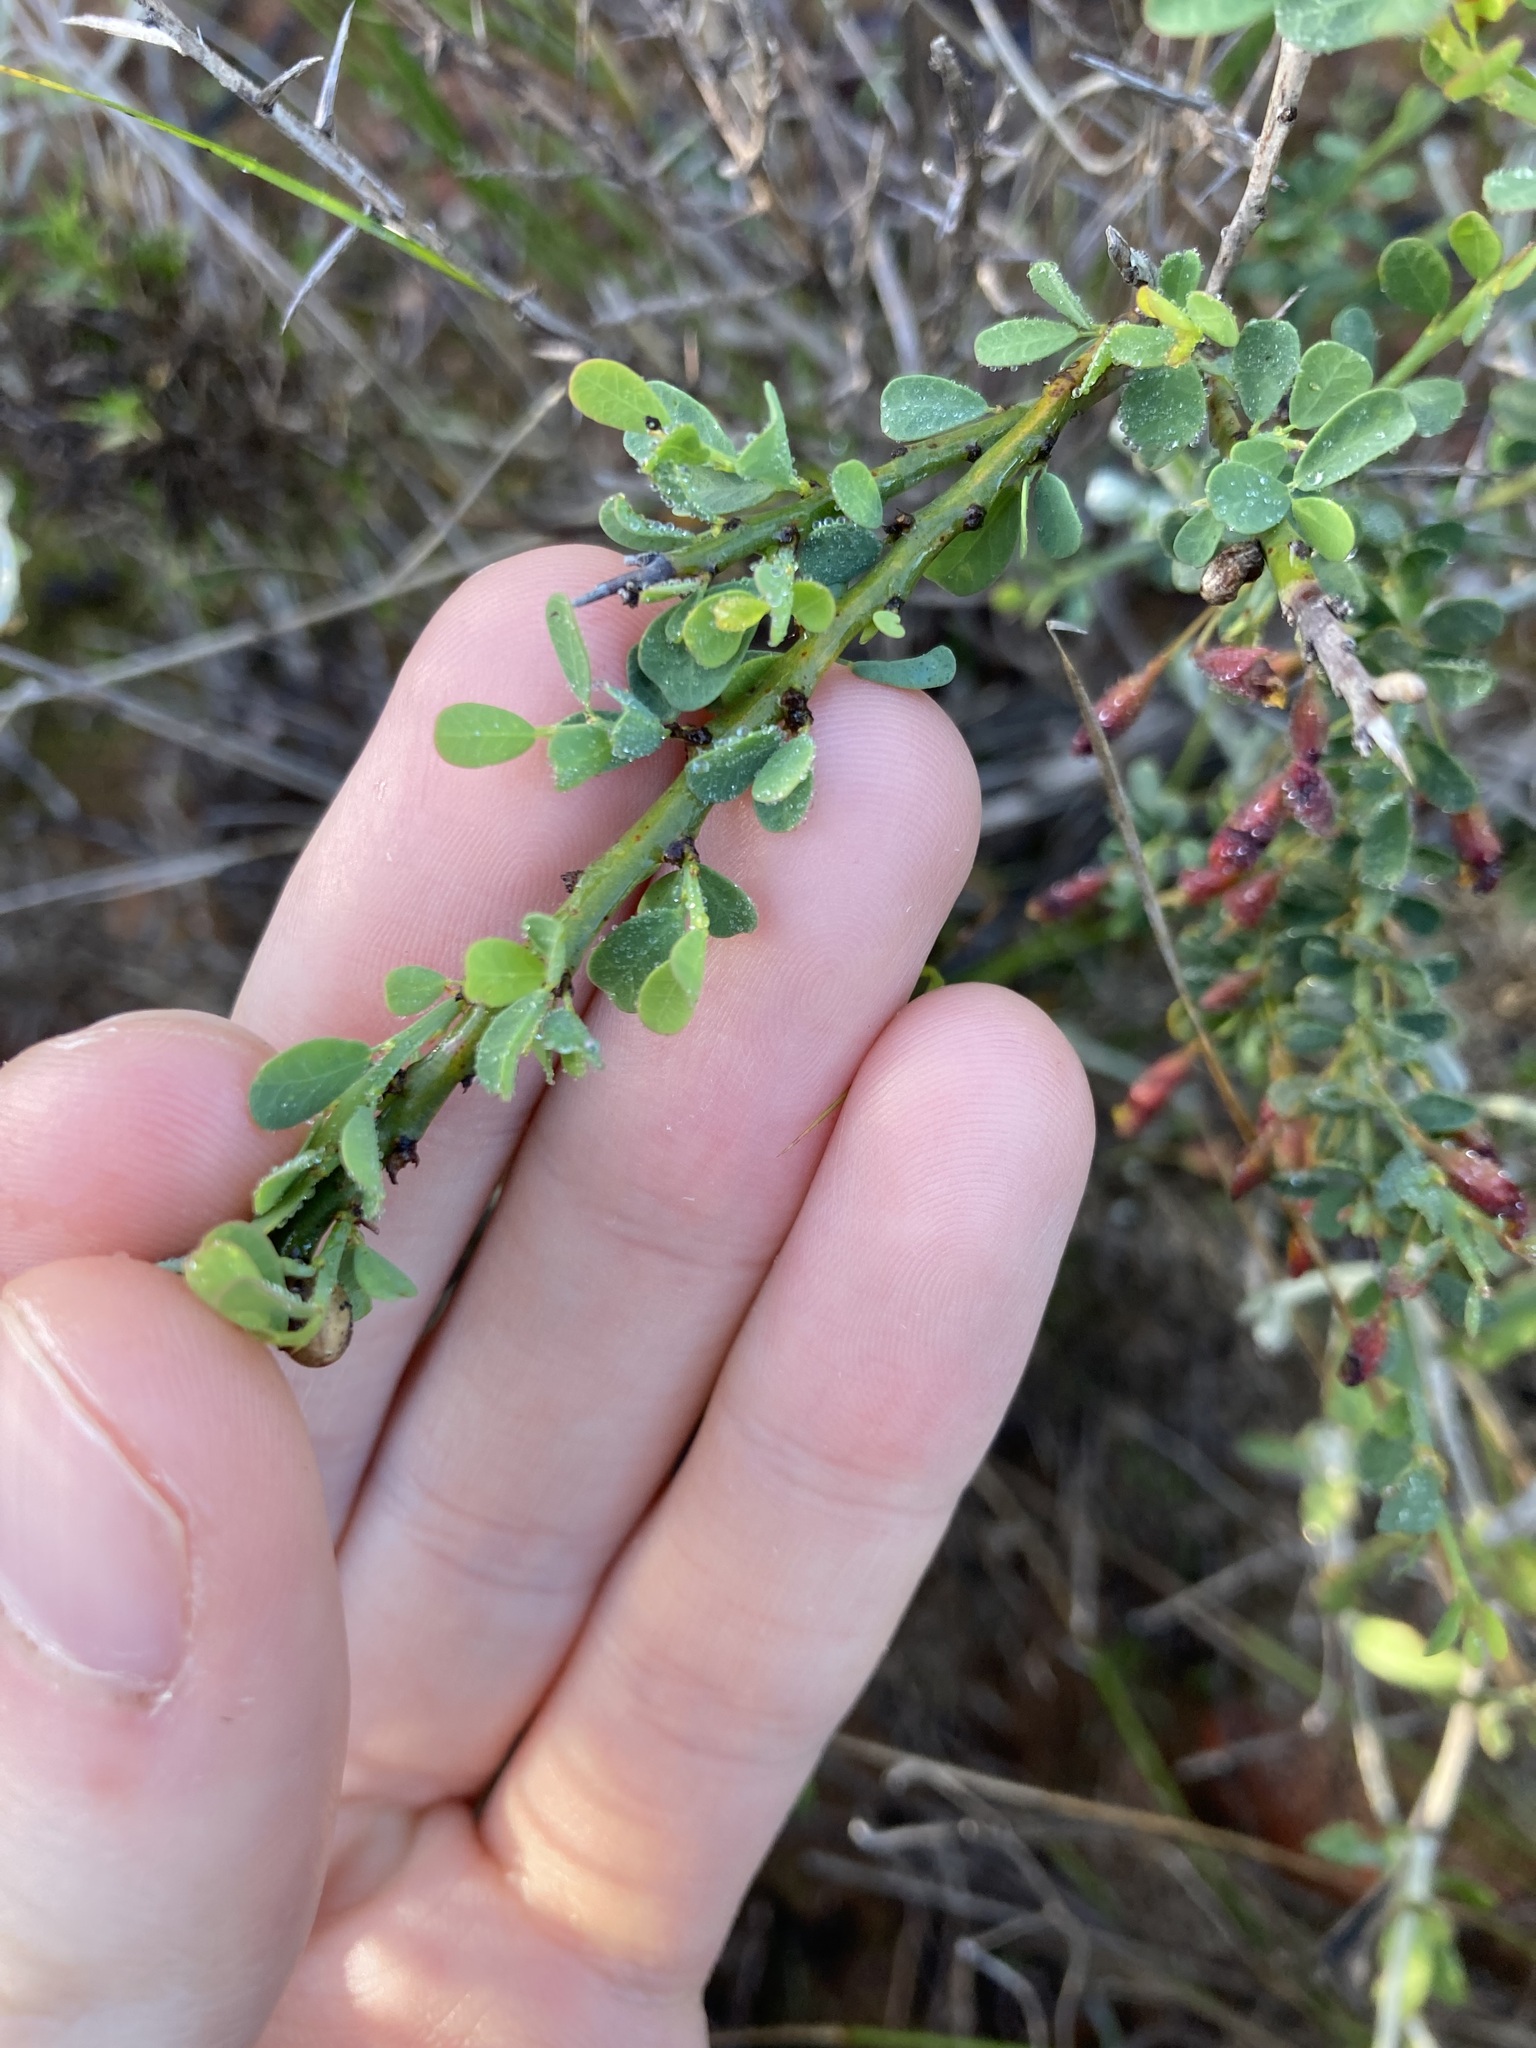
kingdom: Plantae
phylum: Tracheophyta
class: Magnoliopsida
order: Fabales
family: Fabaceae
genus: Bossiaea
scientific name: Bossiaea spinescens
